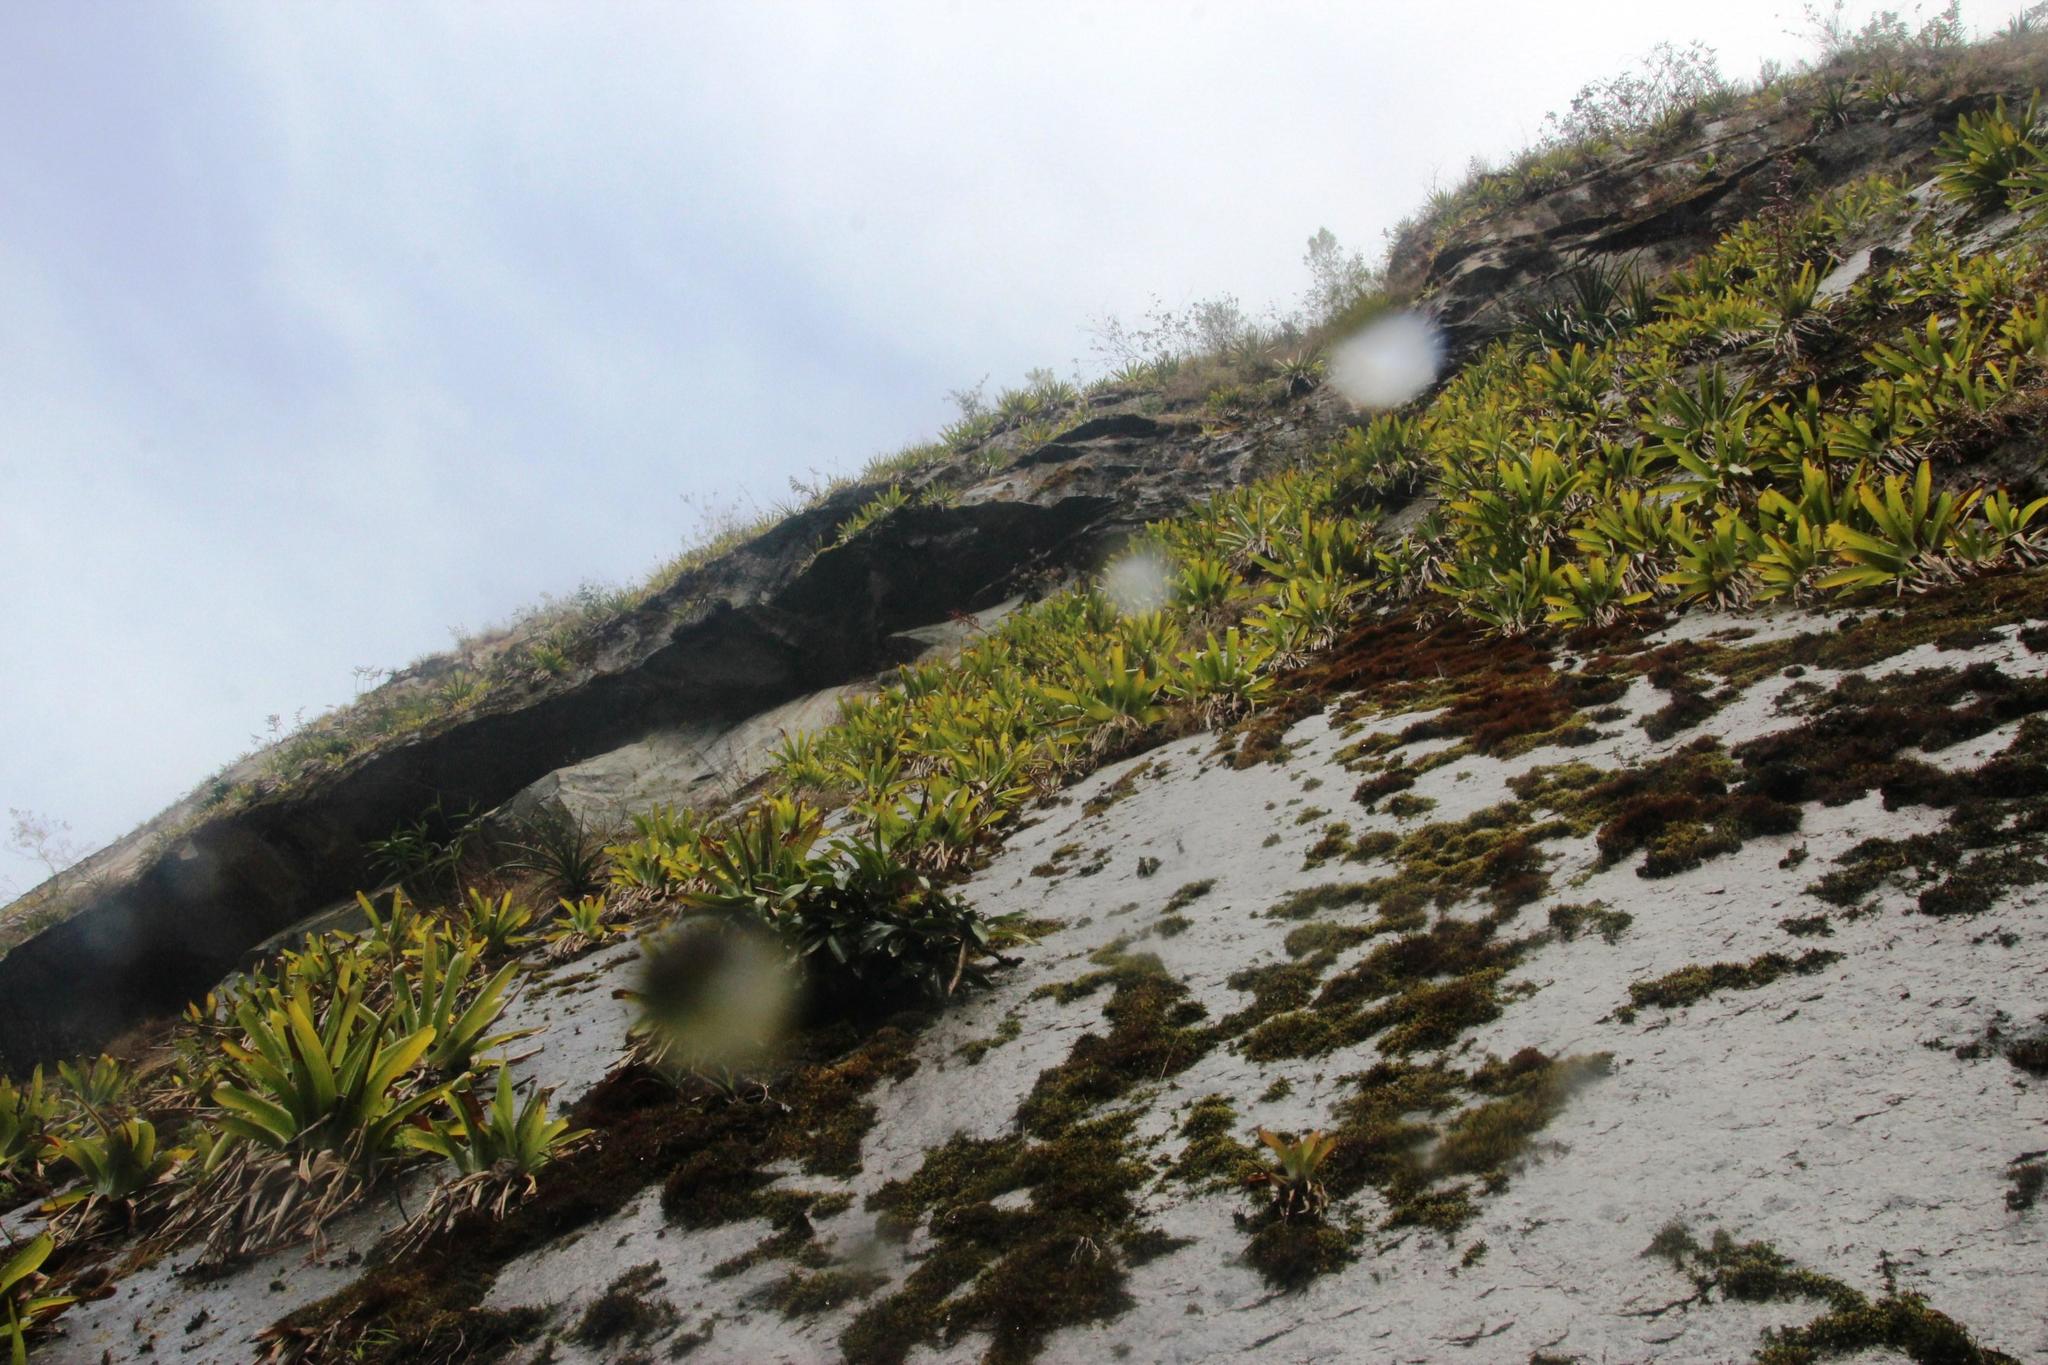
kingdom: Plantae
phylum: Tracheophyta
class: Liliopsida
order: Poales
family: Bromeliaceae
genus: Tillandsia
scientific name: Tillandsia machupicchuensis
